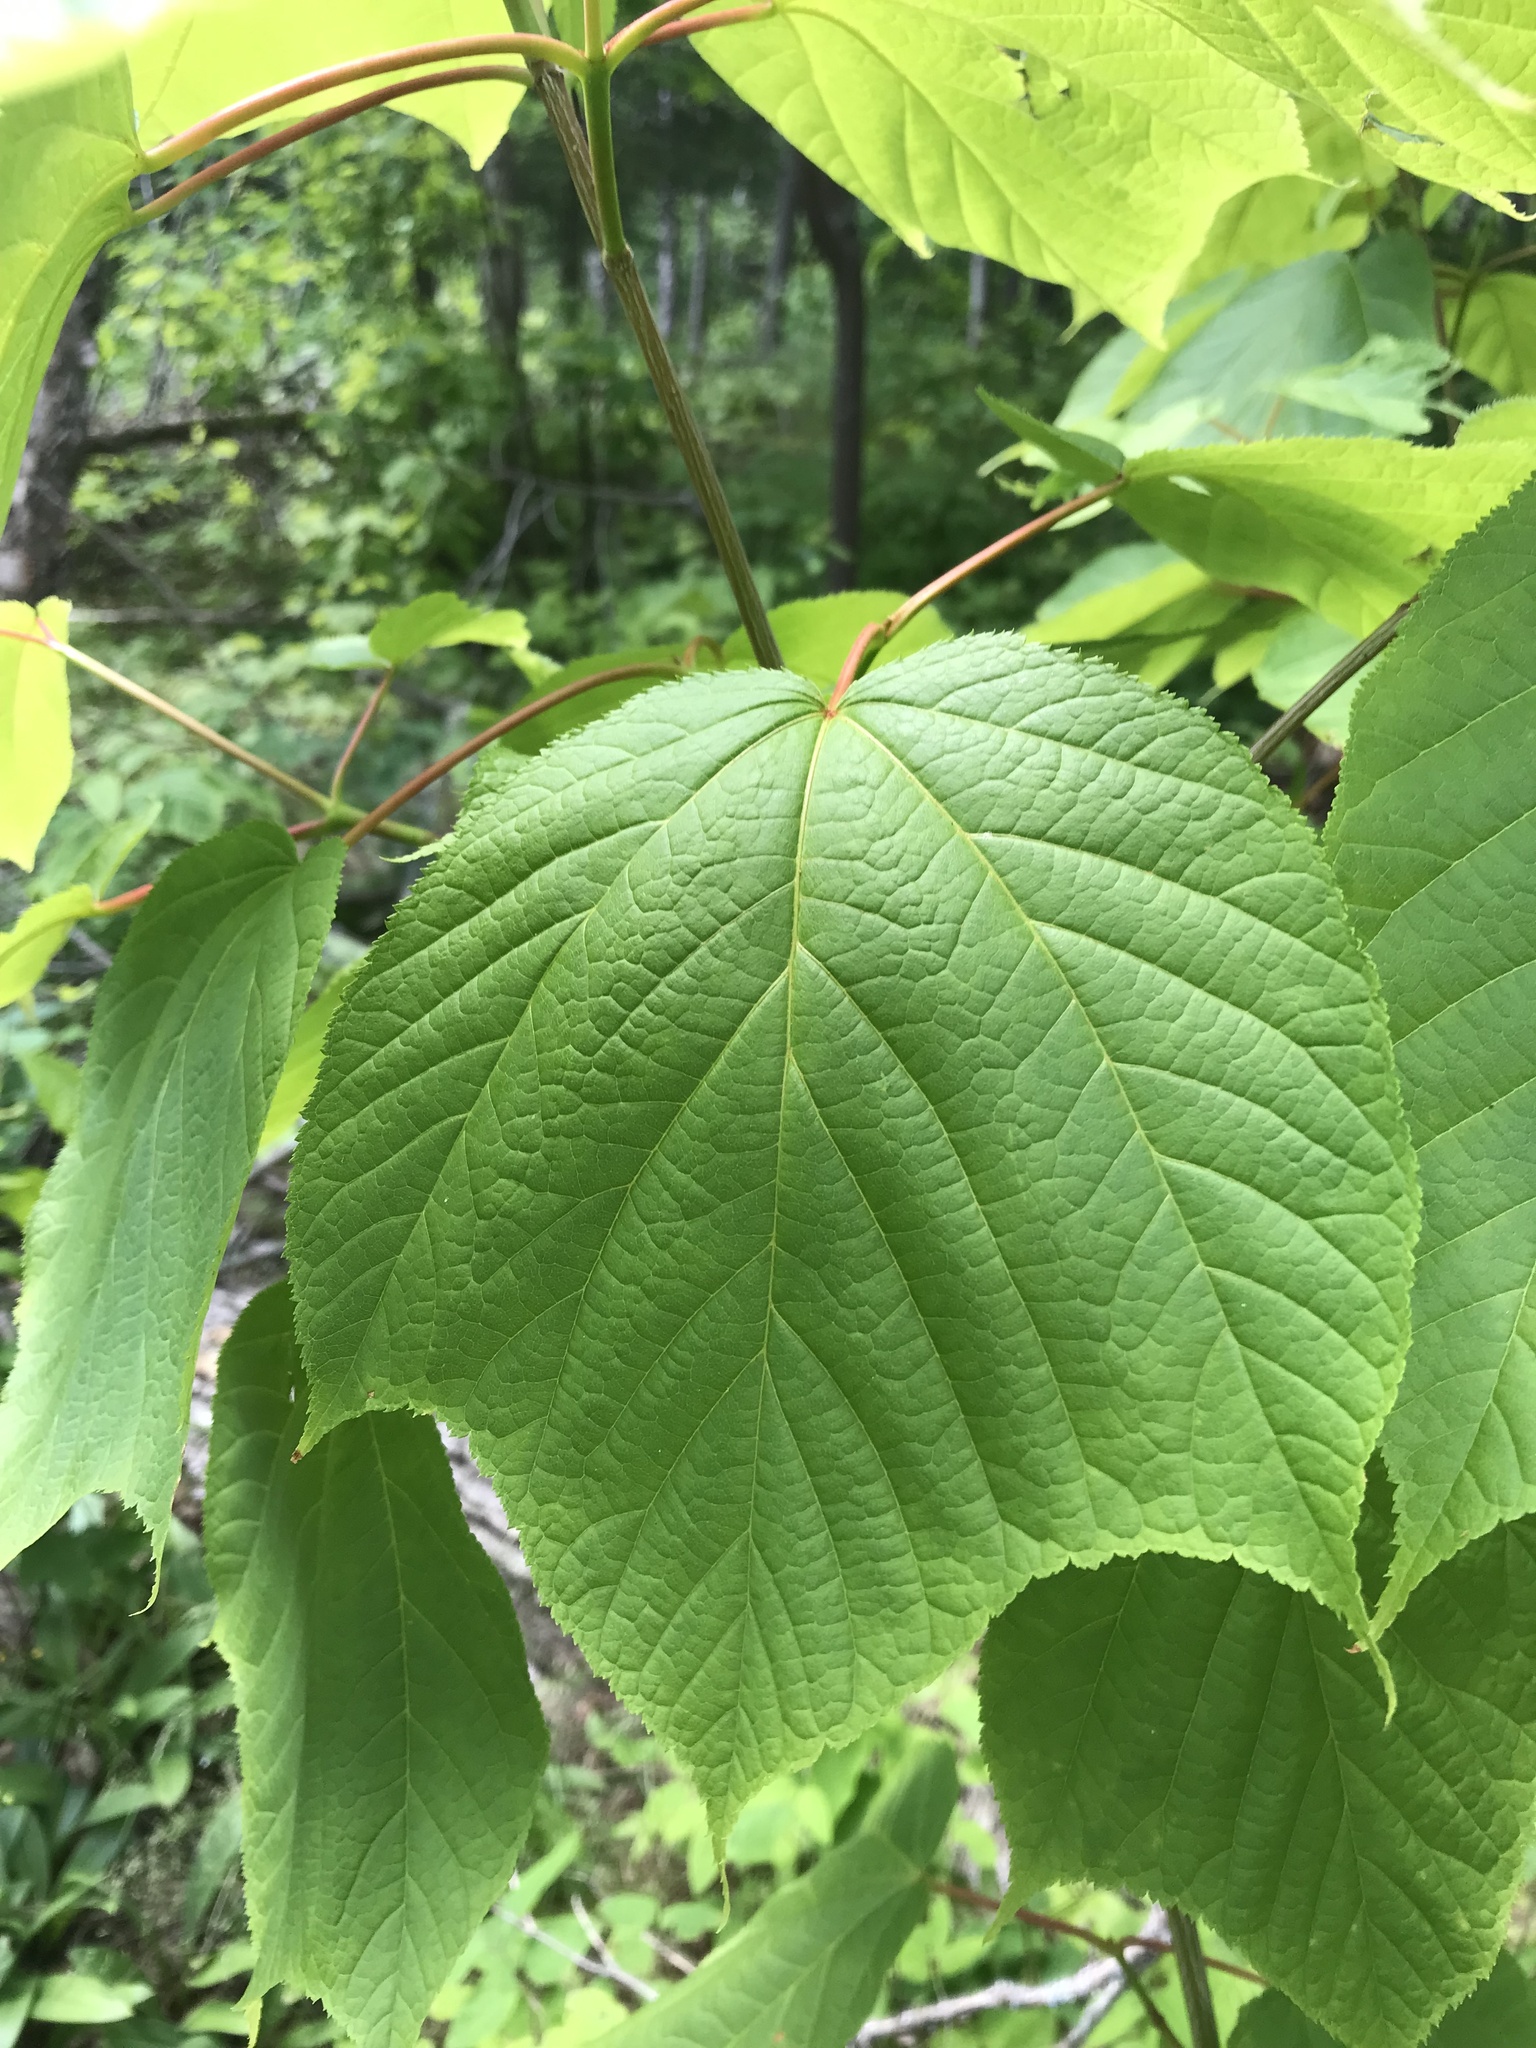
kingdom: Plantae
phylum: Tracheophyta
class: Magnoliopsida
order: Sapindales
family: Sapindaceae
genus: Acer
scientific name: Acer pensylvanicum
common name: Moosewood
